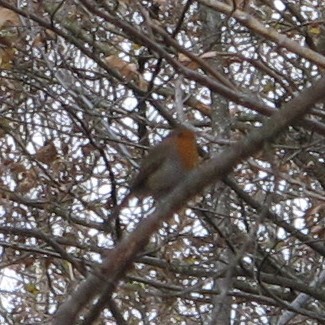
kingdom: Animalia
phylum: Chordata
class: Aves
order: Passeriformes
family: Muscicapidae
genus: Erithacus
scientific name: Erithacus rubecula
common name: European robin
